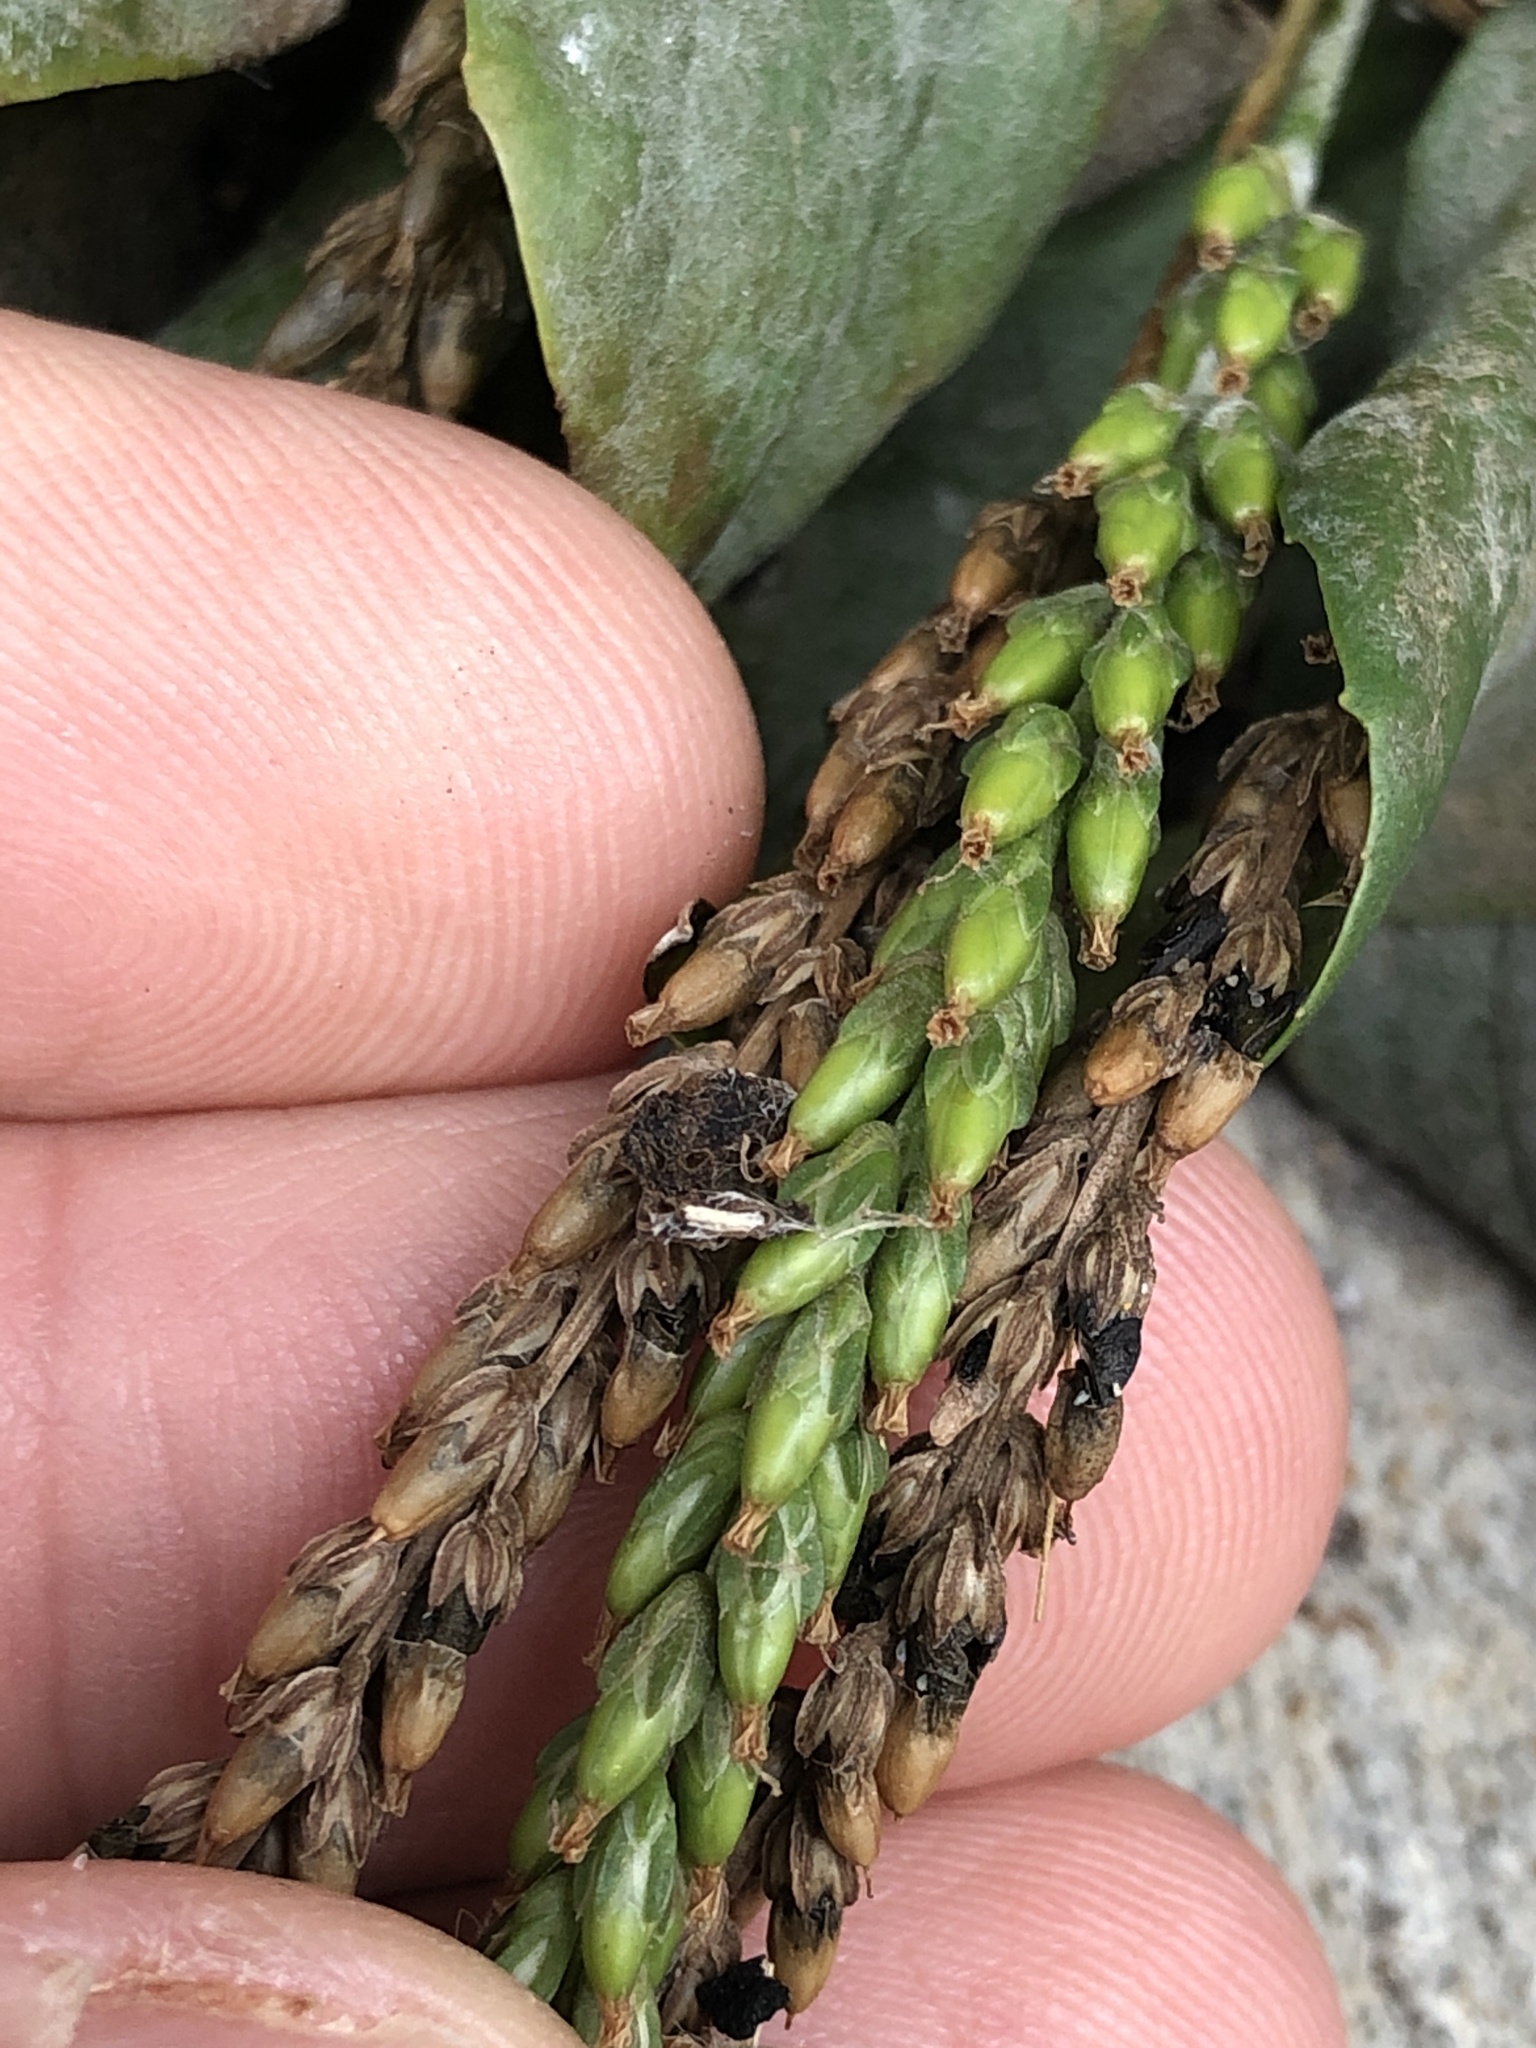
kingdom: Plantae
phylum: Tracheophyta
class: Magnoliopsida
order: Lamiales
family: Plantaginaceae
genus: Plantago
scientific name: Plantago rugelii
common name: American plantain
